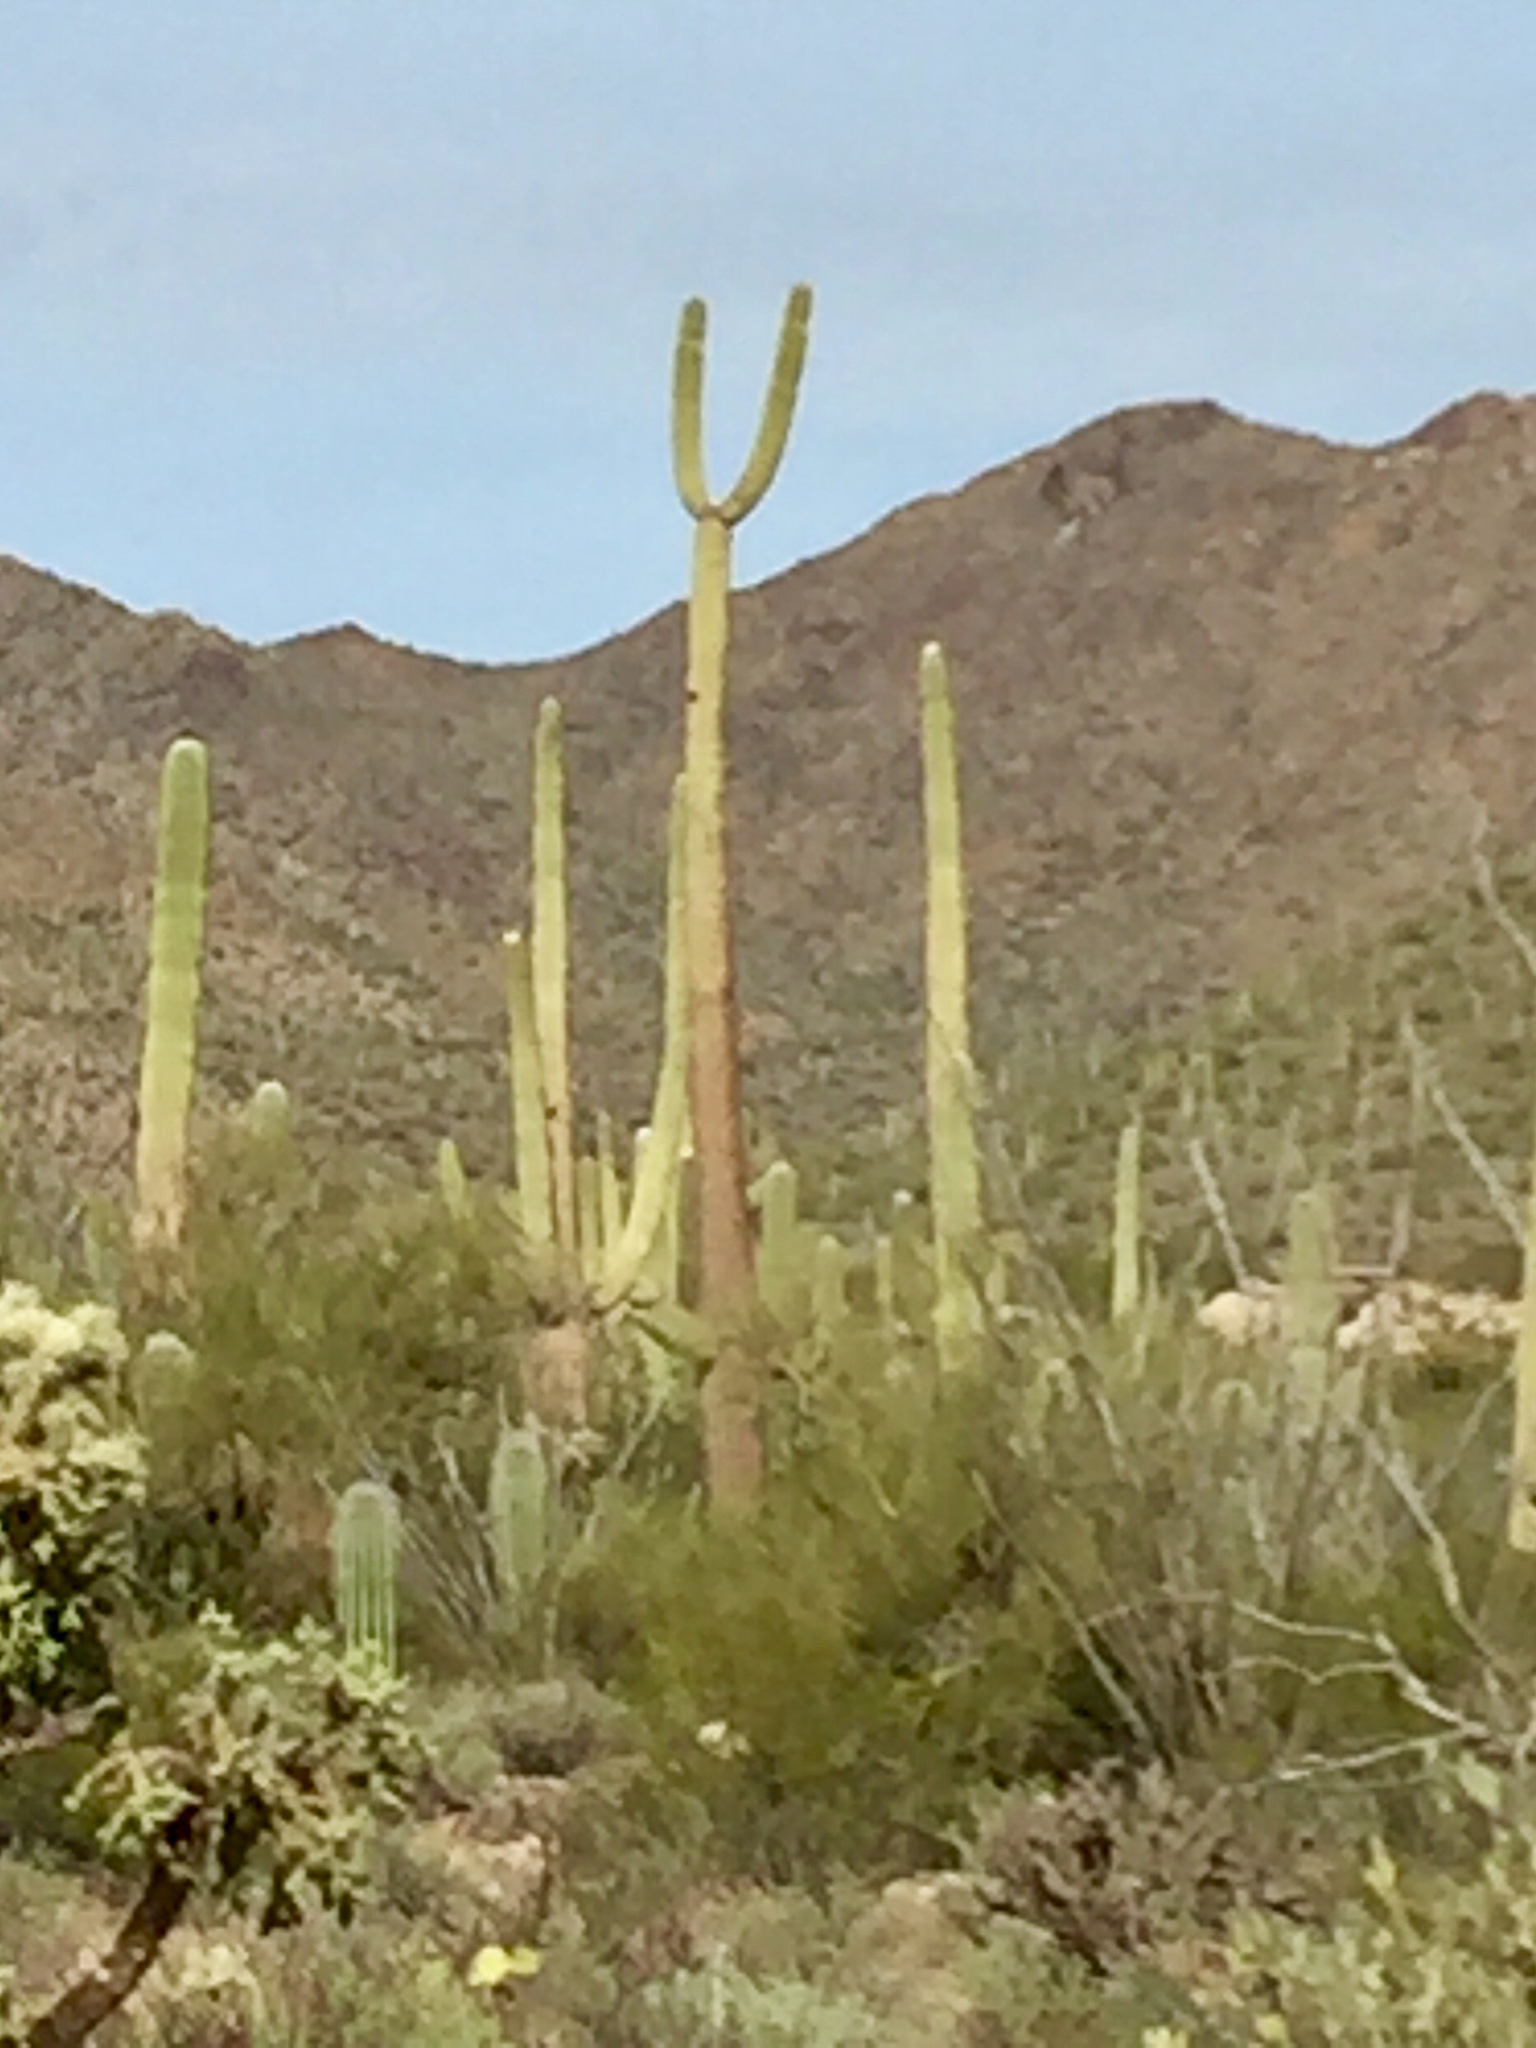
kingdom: Plantae
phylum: Tracheophyta
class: Magnoliopsida
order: Caryophyllales
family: Cactaceae
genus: Carnegiea
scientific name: Carnegiea gigantea
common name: Saguaro
